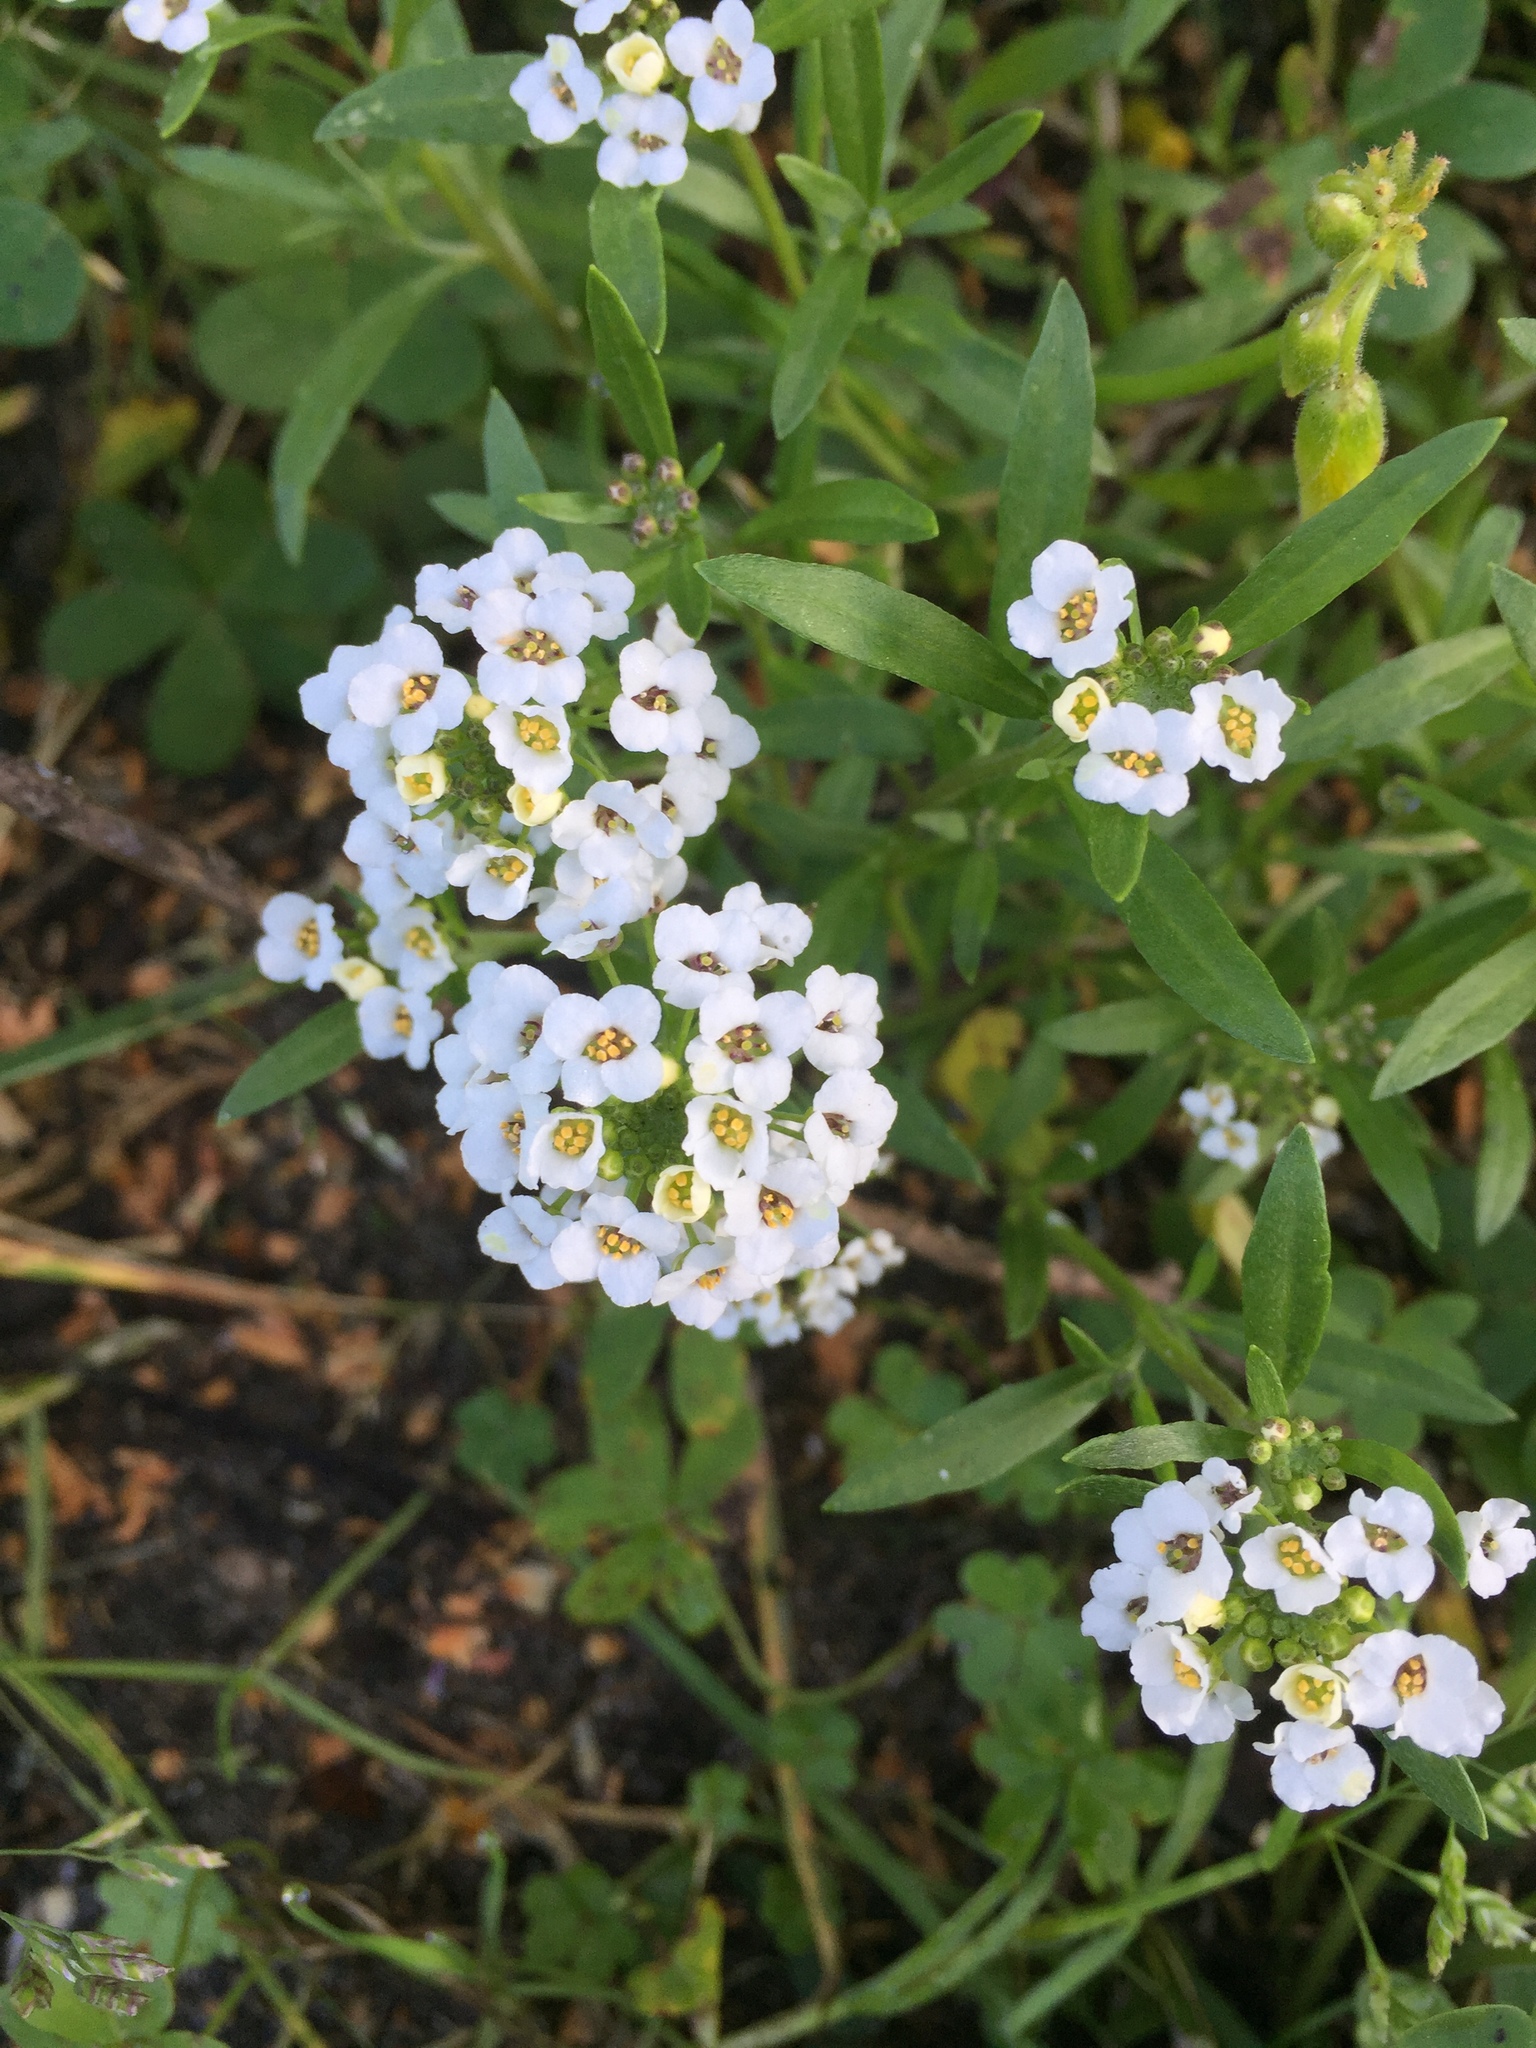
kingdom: Plantae
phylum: Tracheophyta
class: Magnoliopsida
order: Brassicales
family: Brassicaceae
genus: Lobularia
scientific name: Lobularia maritima
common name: Sweet alison
